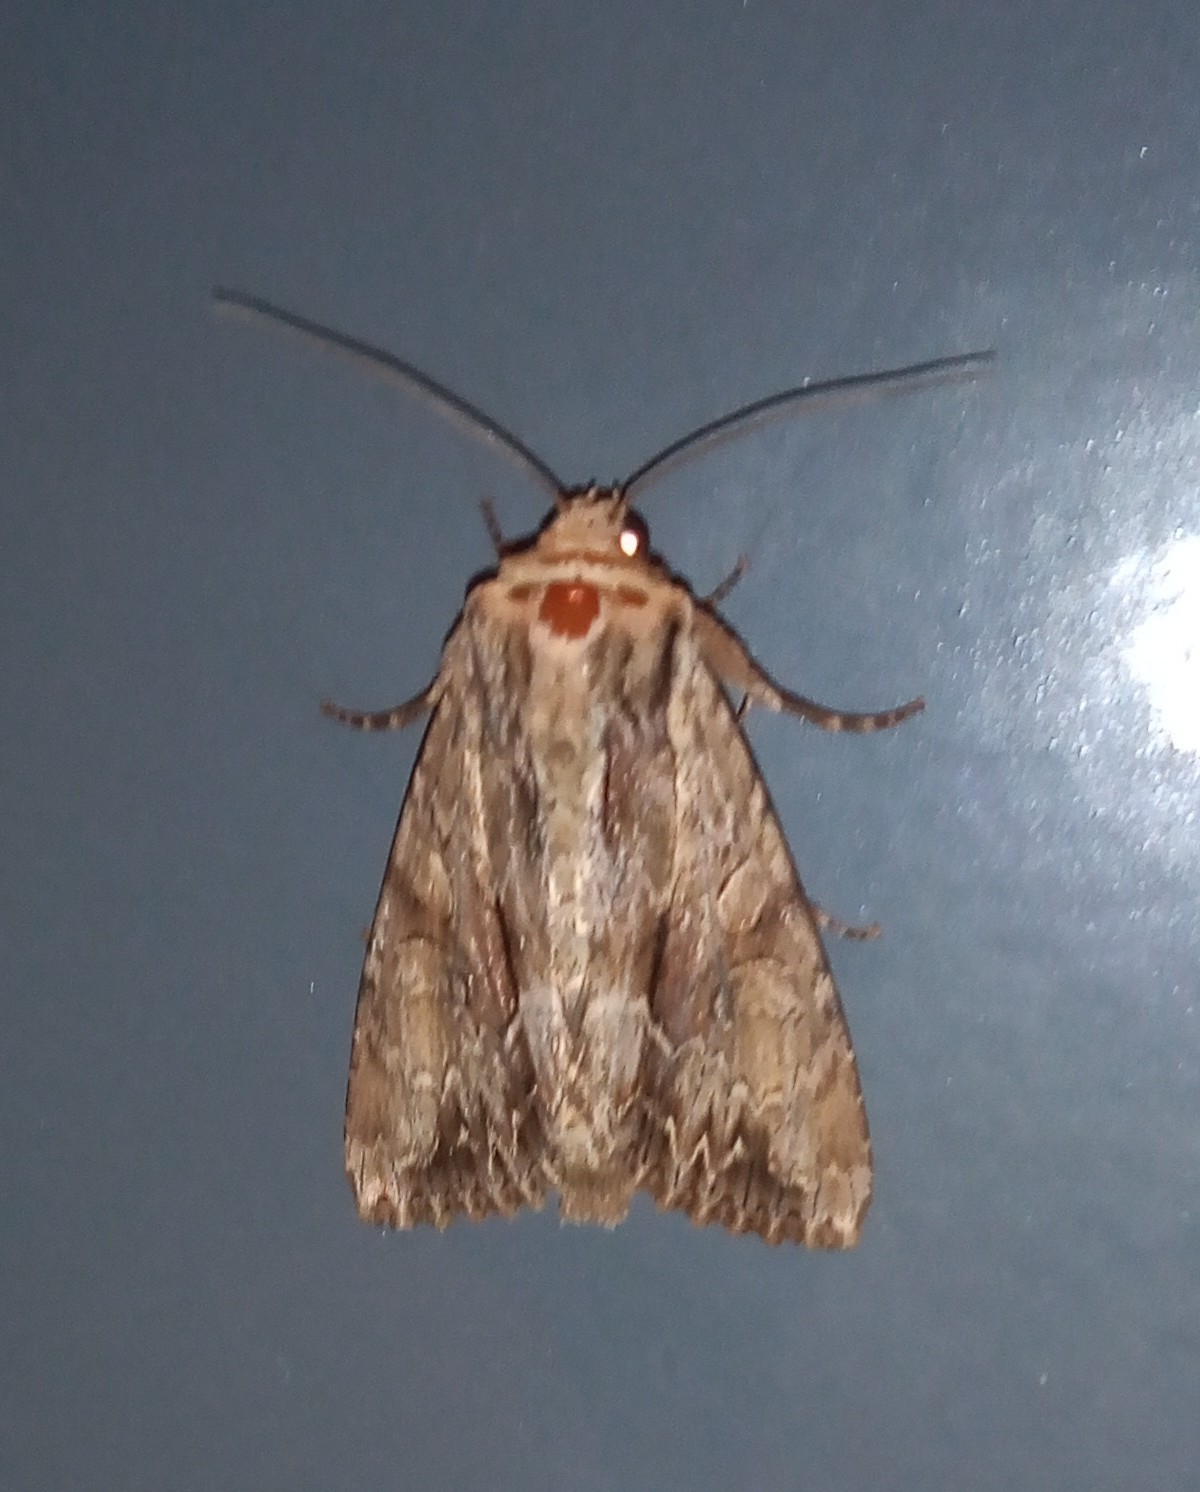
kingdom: Animalia
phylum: Arthropoda
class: Insecta
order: Lepidoptera
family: Noctuidae
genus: Apamea
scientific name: Apamea monoglypha
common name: Dark arches
